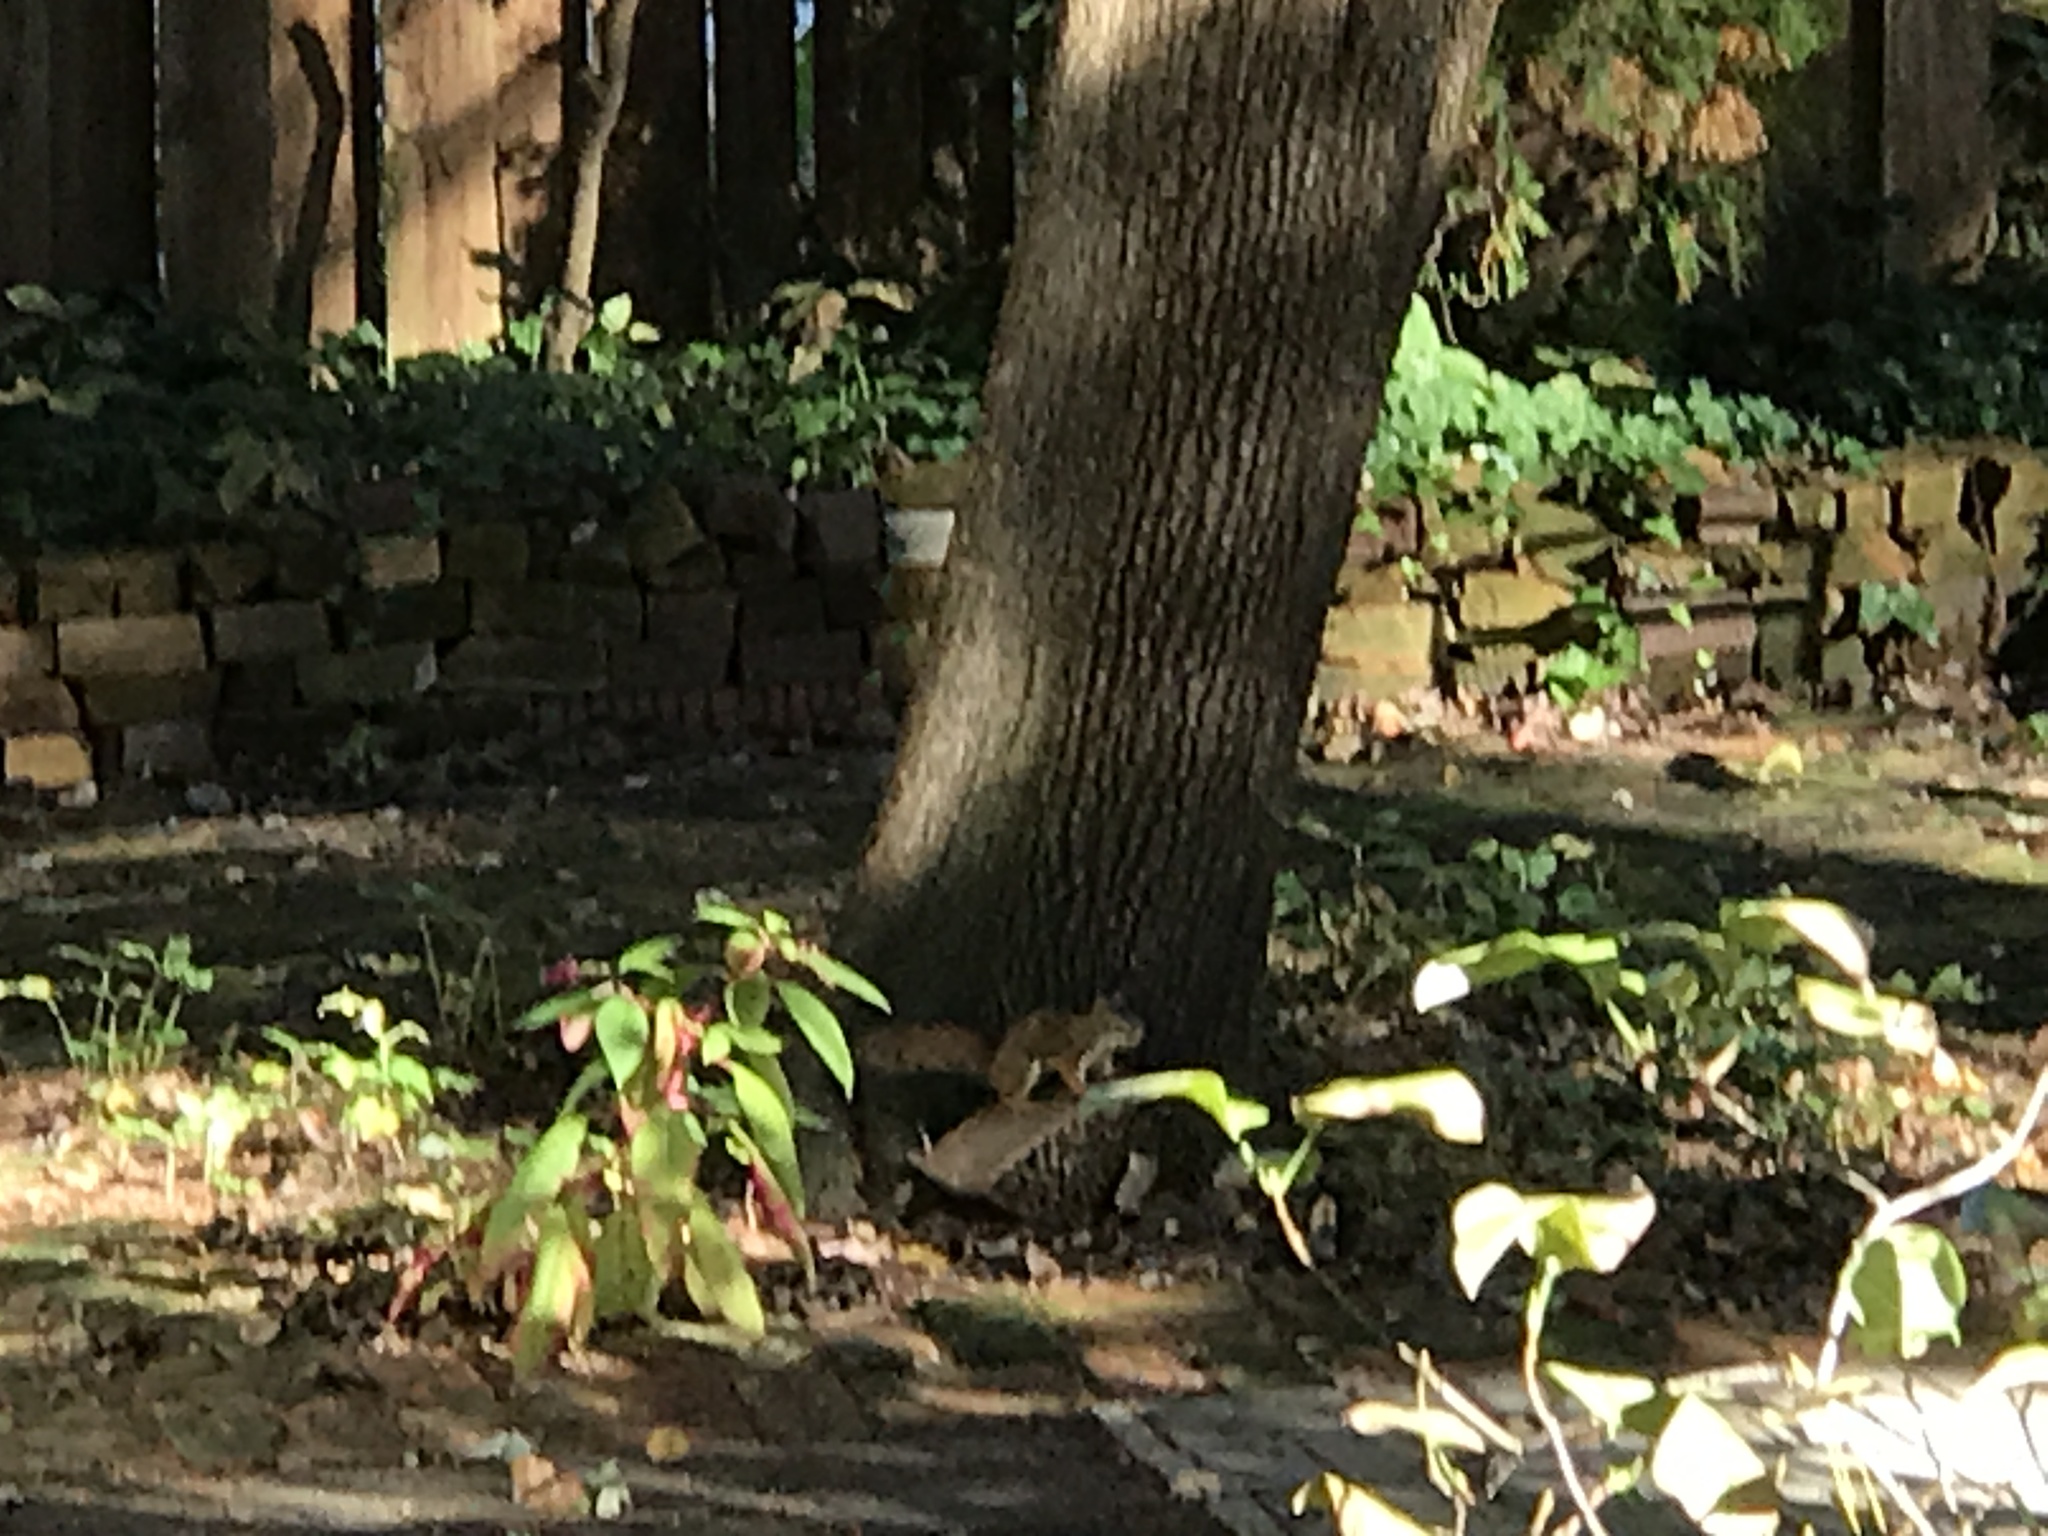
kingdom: Animalia
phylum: Chordata
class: Mammalia
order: Rodentia
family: Sciuridae
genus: Tamiasciurus
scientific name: Tamiasciurus hudsonicus
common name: Red squirrel
